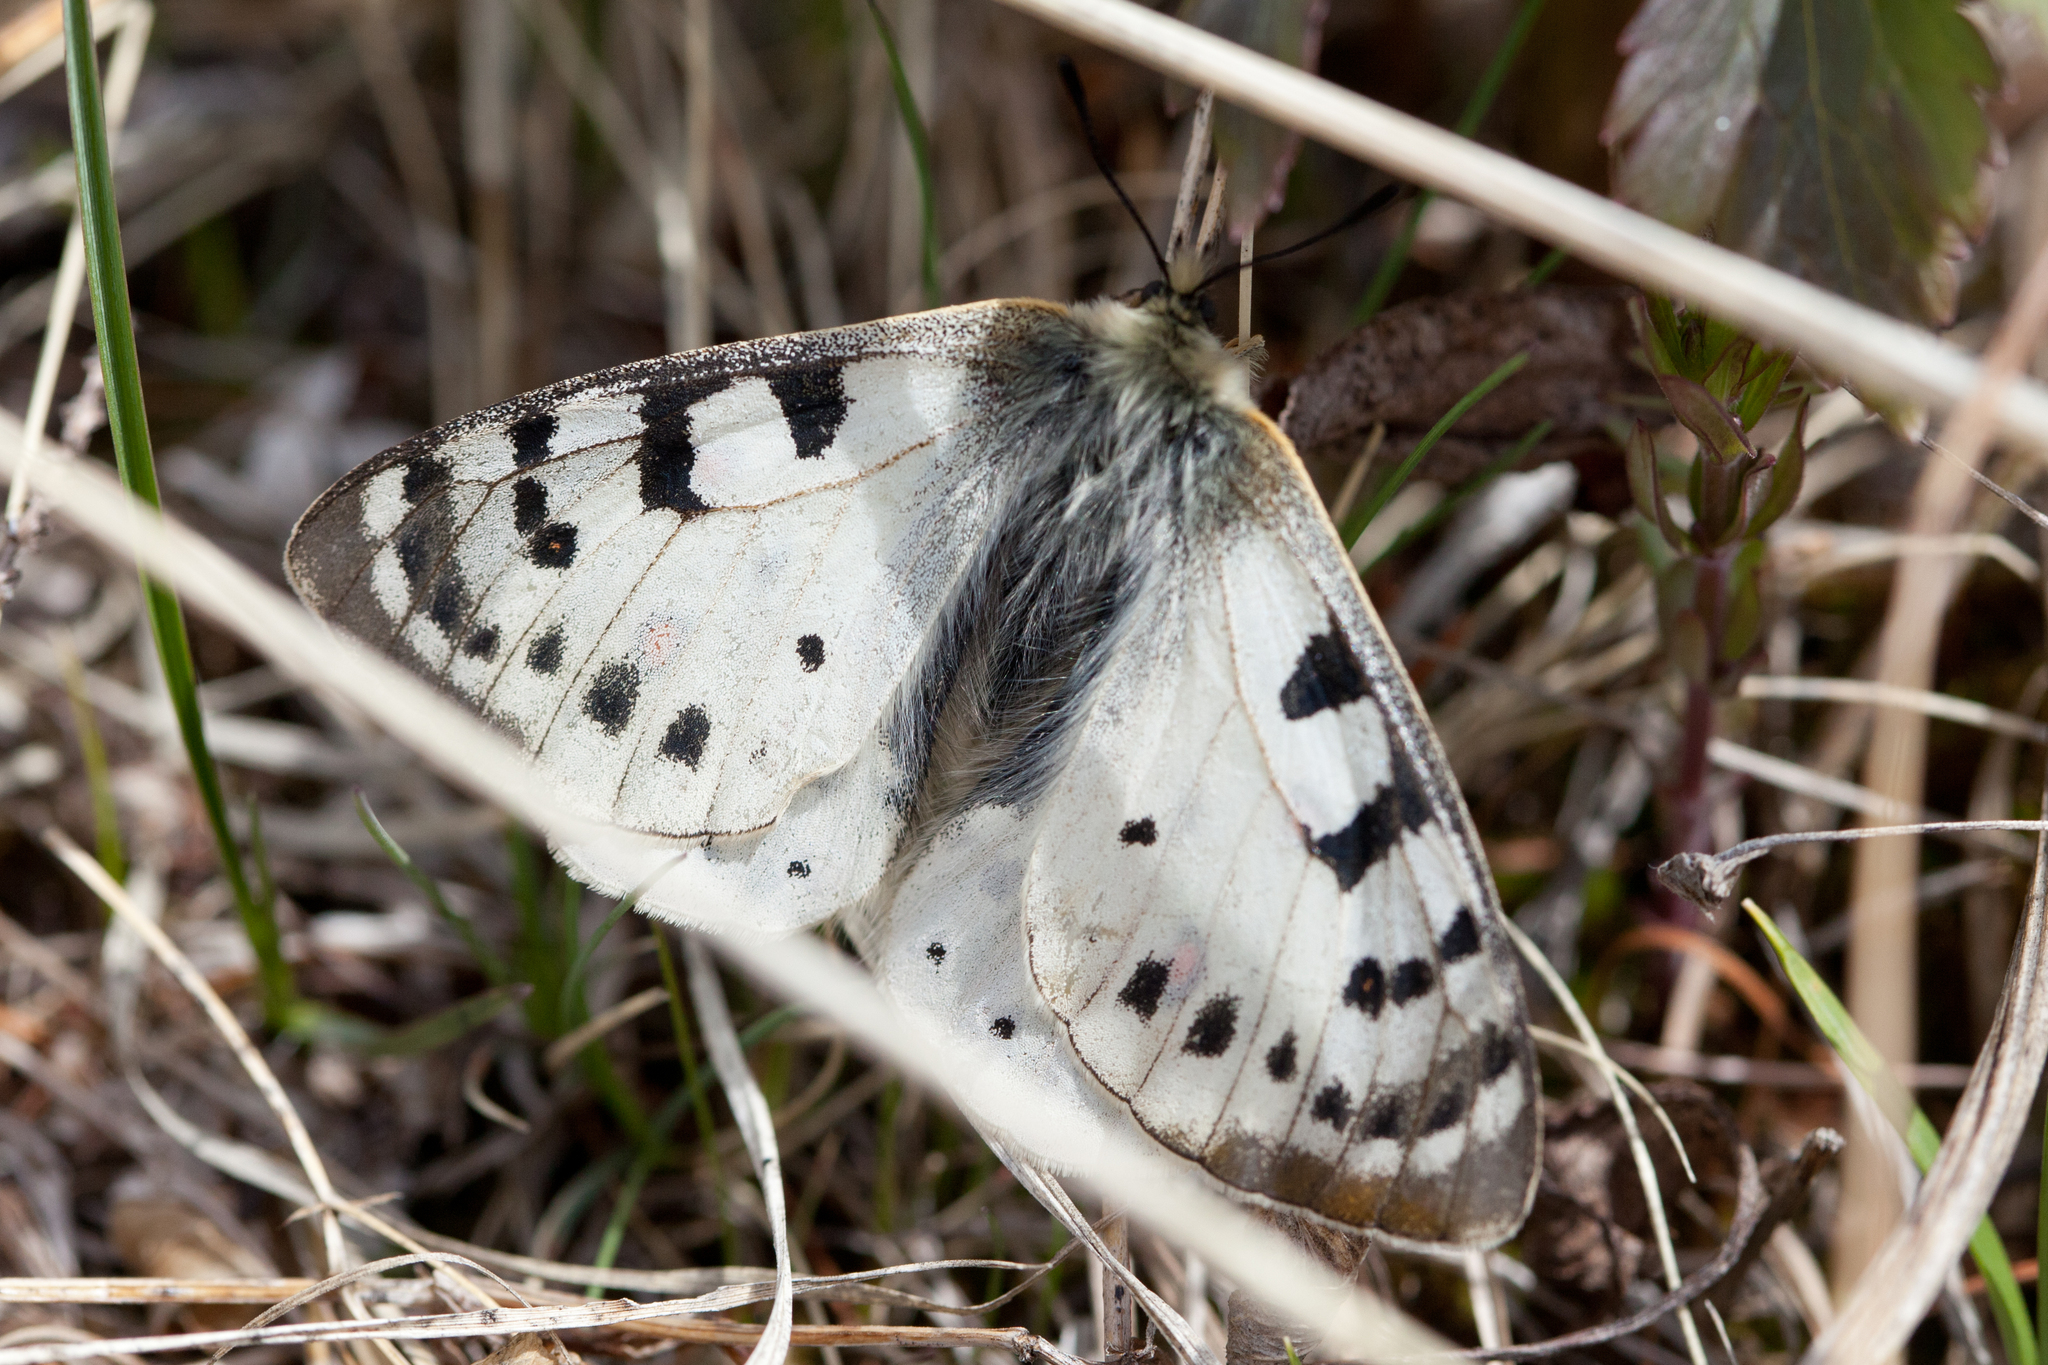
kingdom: Animalia
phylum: Arthropoda
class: Insecta
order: Lepidoptera
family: Papilionidae
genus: Parnassius
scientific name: Parnassius tenedius
